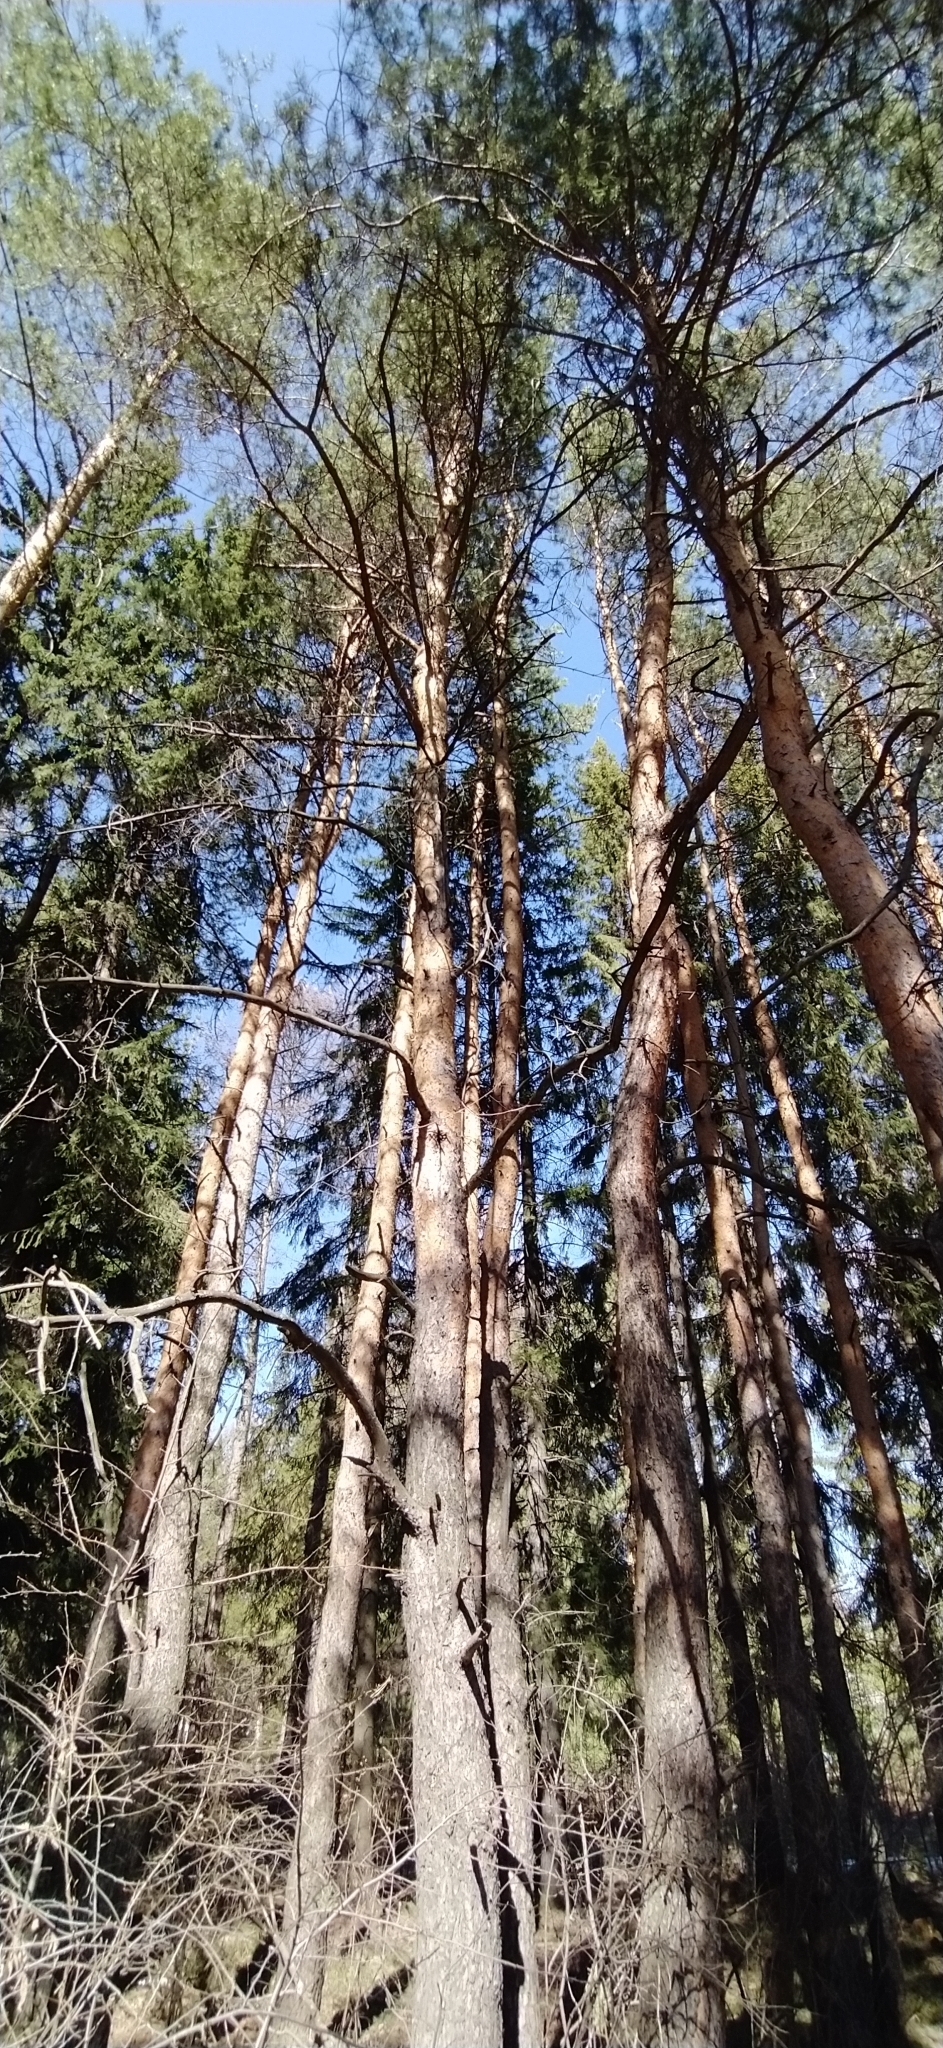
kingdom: Plantae
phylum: Tracheophyta
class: Pinopsida
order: Pinales
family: Pinaceae
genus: Pinus
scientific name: Pinus sylvestris
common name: Scots pine
